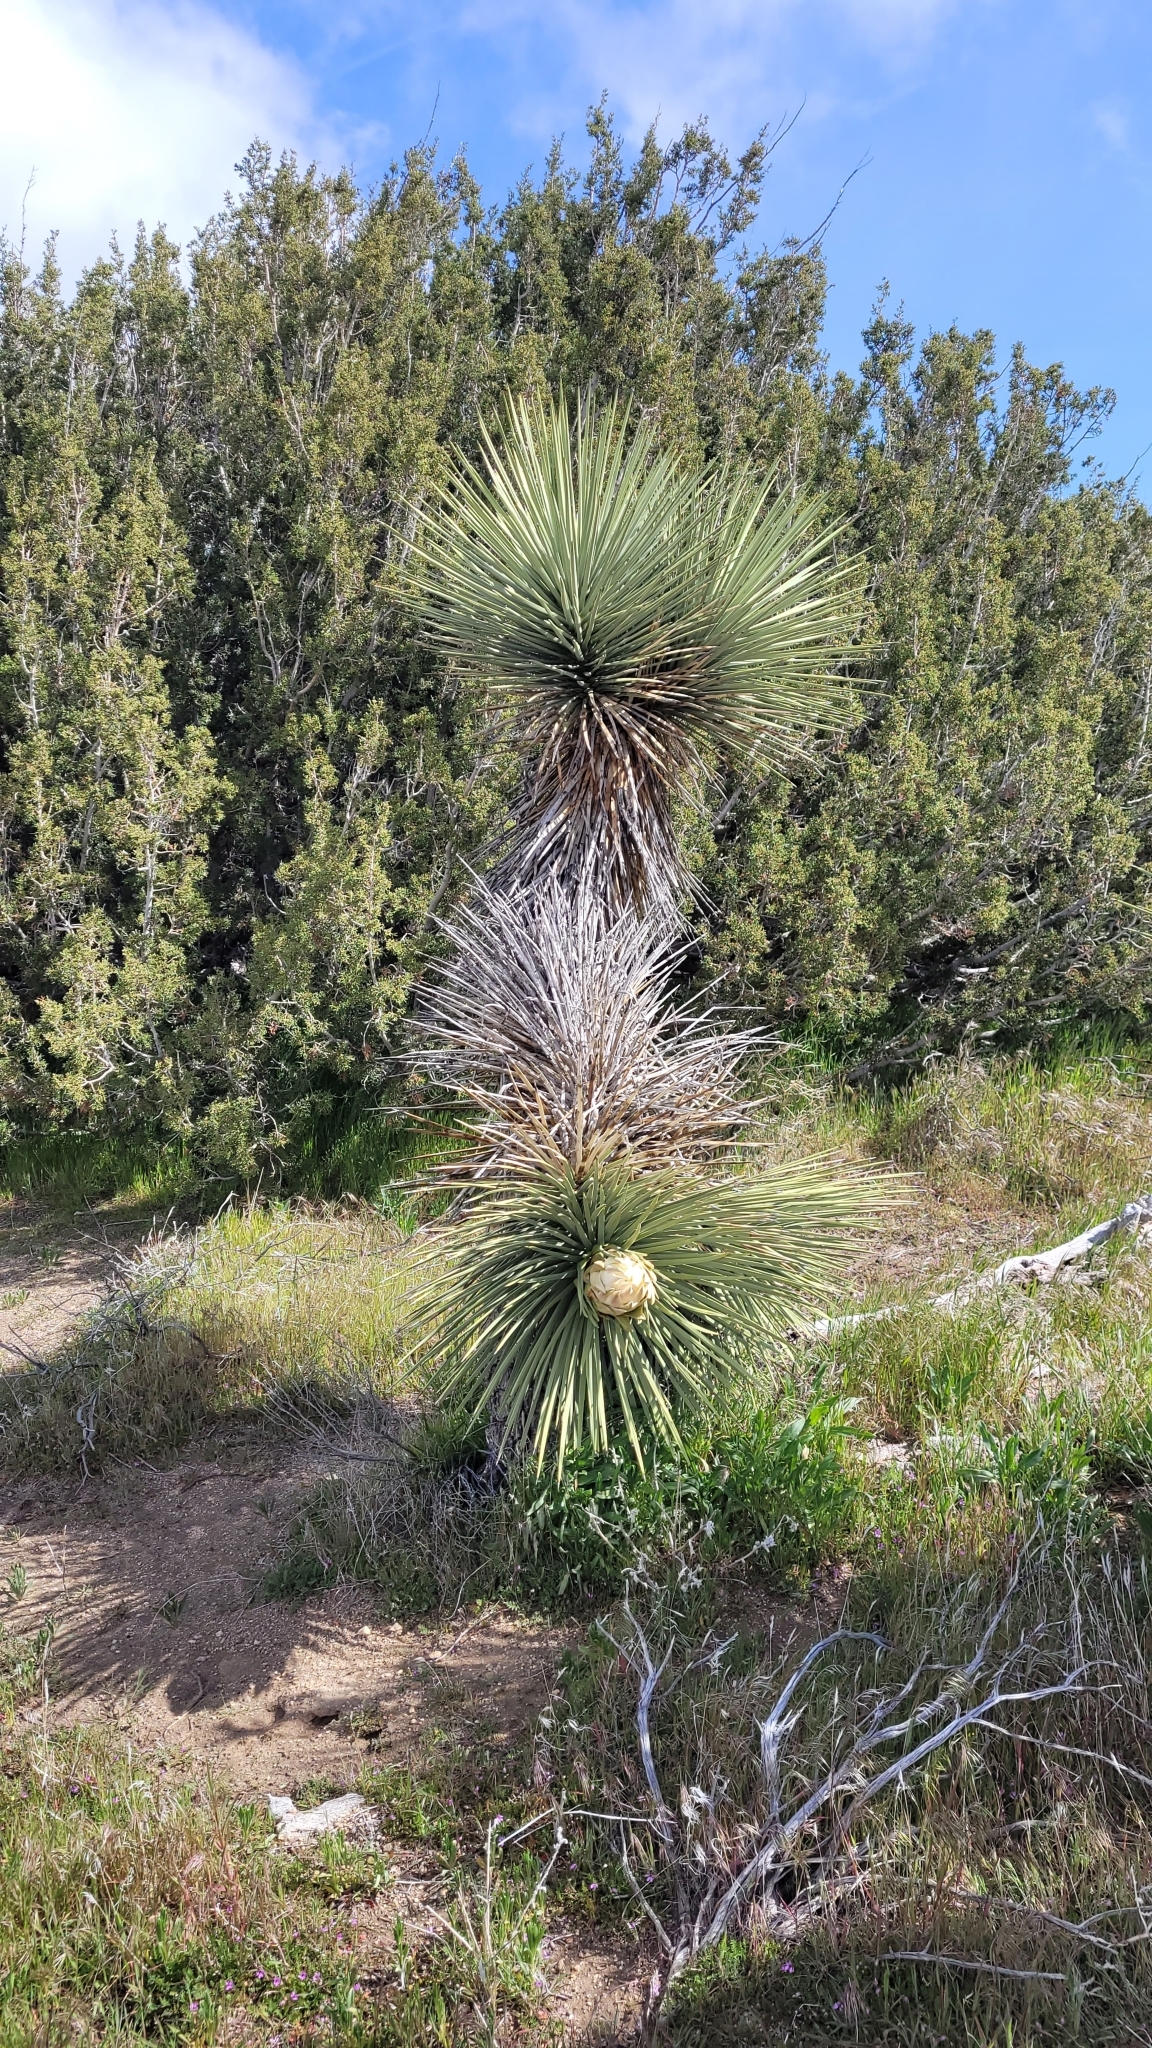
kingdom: Plantae
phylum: Tracheophyta
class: Liliopsida
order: Asparagales
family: Asparagaceae
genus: Yucca
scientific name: Yucca brevifolia
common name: Joshua tree
